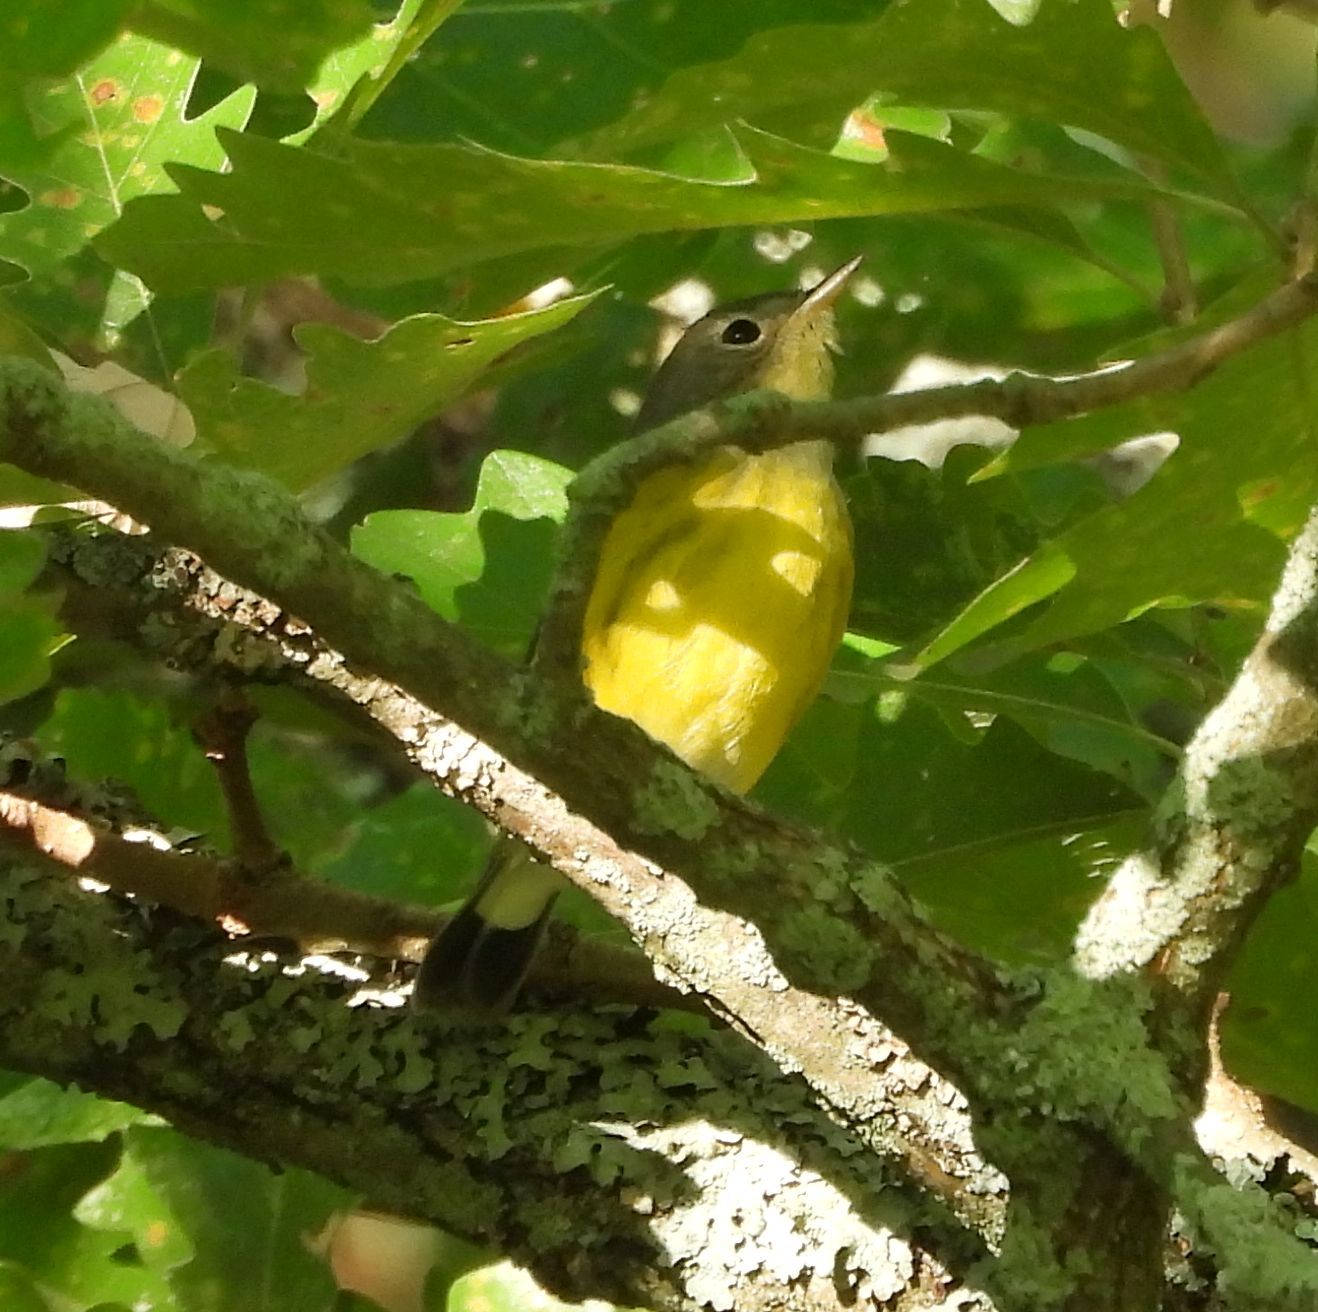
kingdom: Animalia
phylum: Chordata
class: Aves
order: Passeriformes
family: Parulidae
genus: Setophaga
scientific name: Setophaga magnolia
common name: Magnolia warbler
